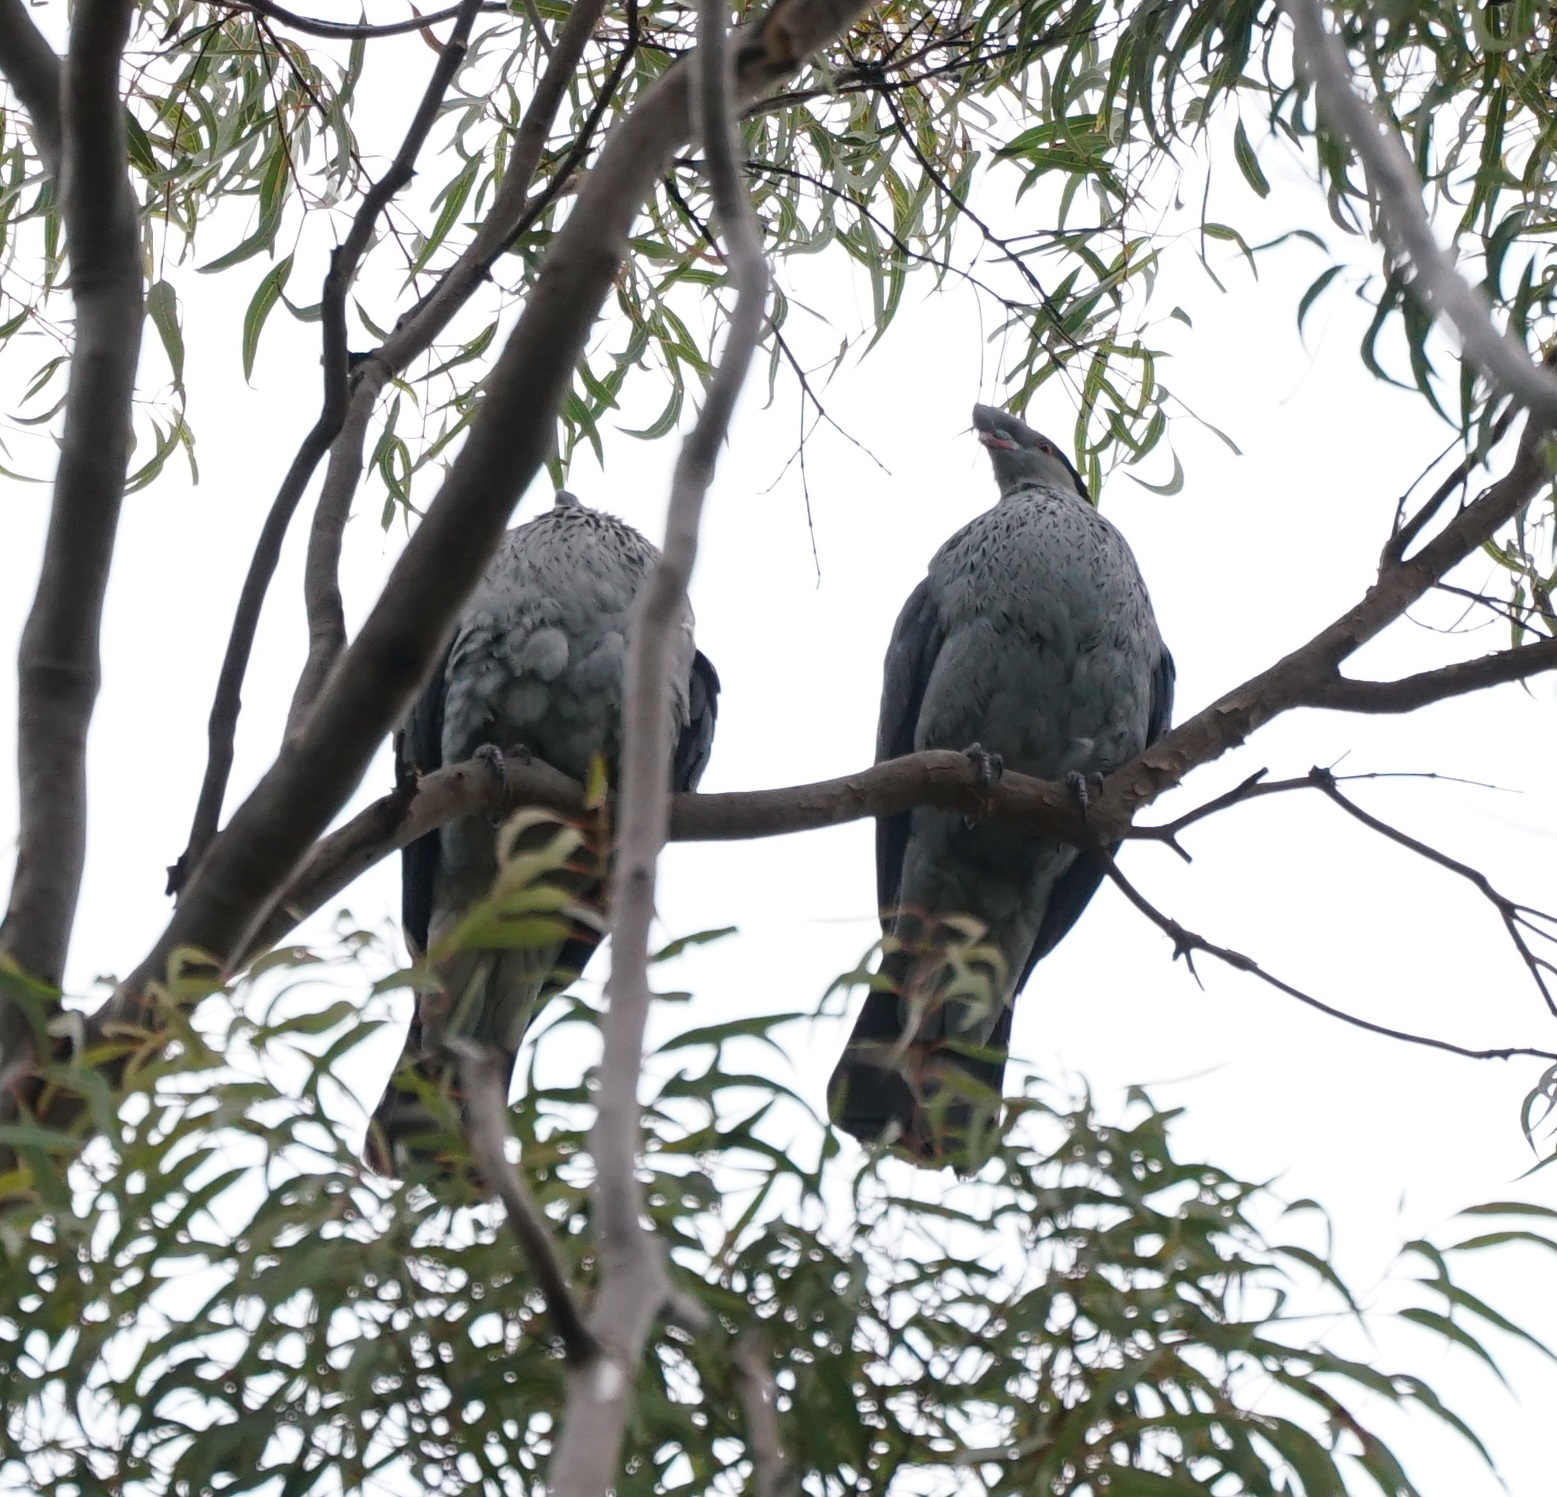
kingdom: Animalia
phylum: Chordata
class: Aves
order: Columbiformes
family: Columbidae
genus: Lopholaimus
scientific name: Lopholaimus antarcticus
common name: Topknot pigeon
